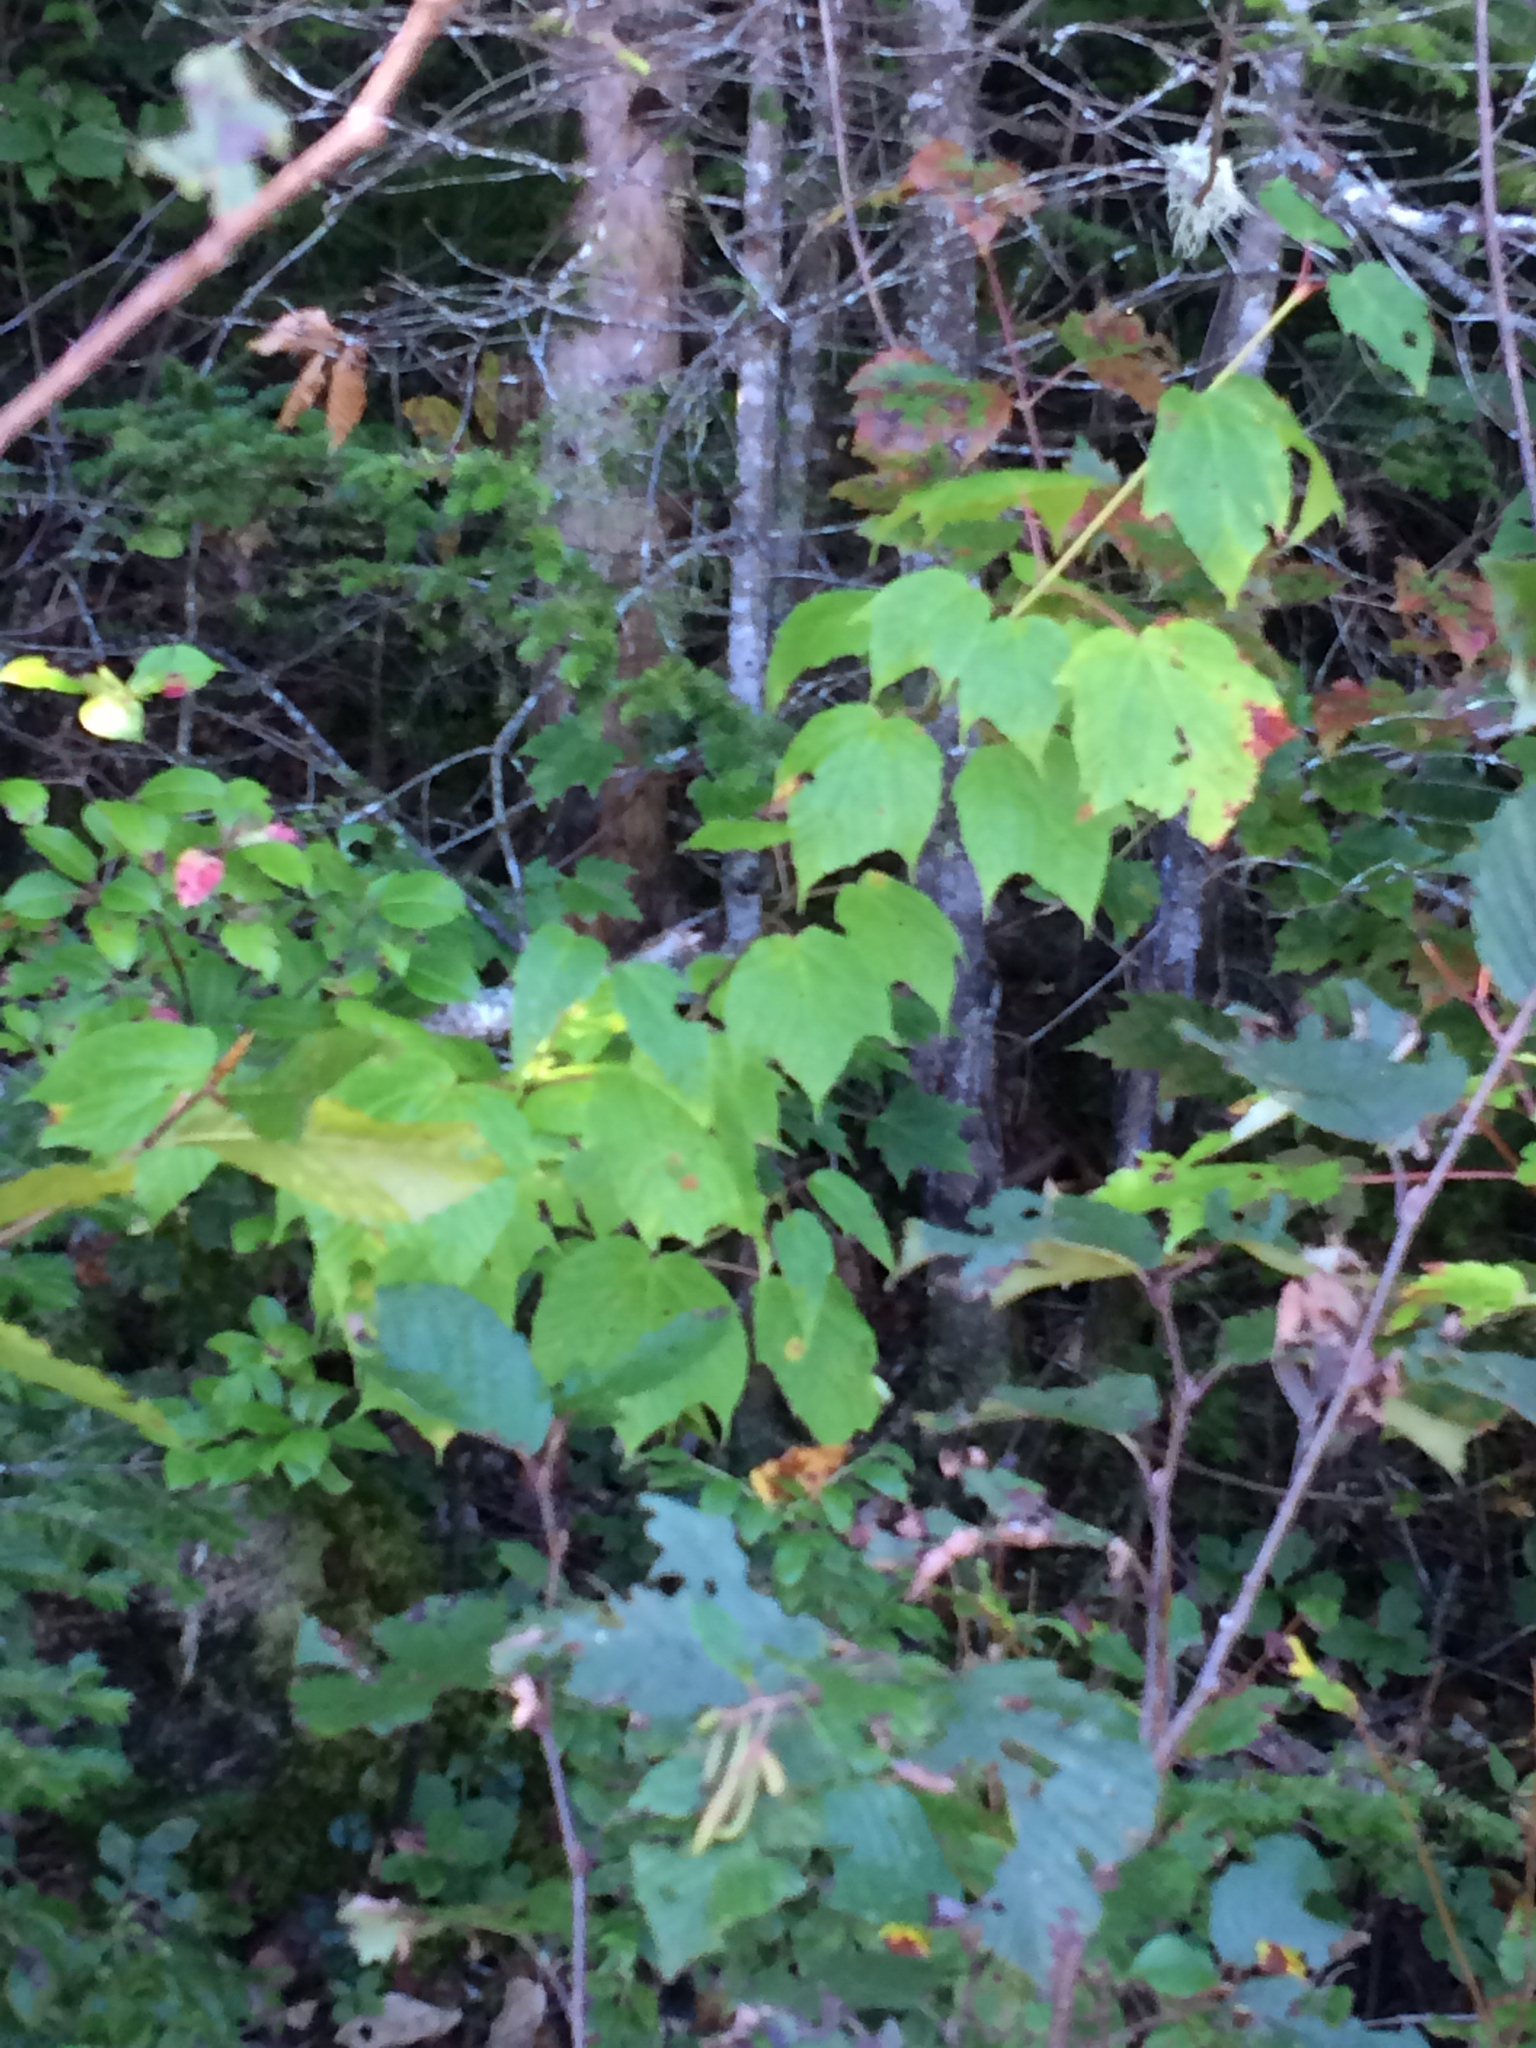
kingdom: Plantae
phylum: Tracheophyta
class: Magnoliopsida
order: Sapindales
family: Sapindaceae
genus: Acer
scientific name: Acer pensylvanicum
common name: Moosewood
